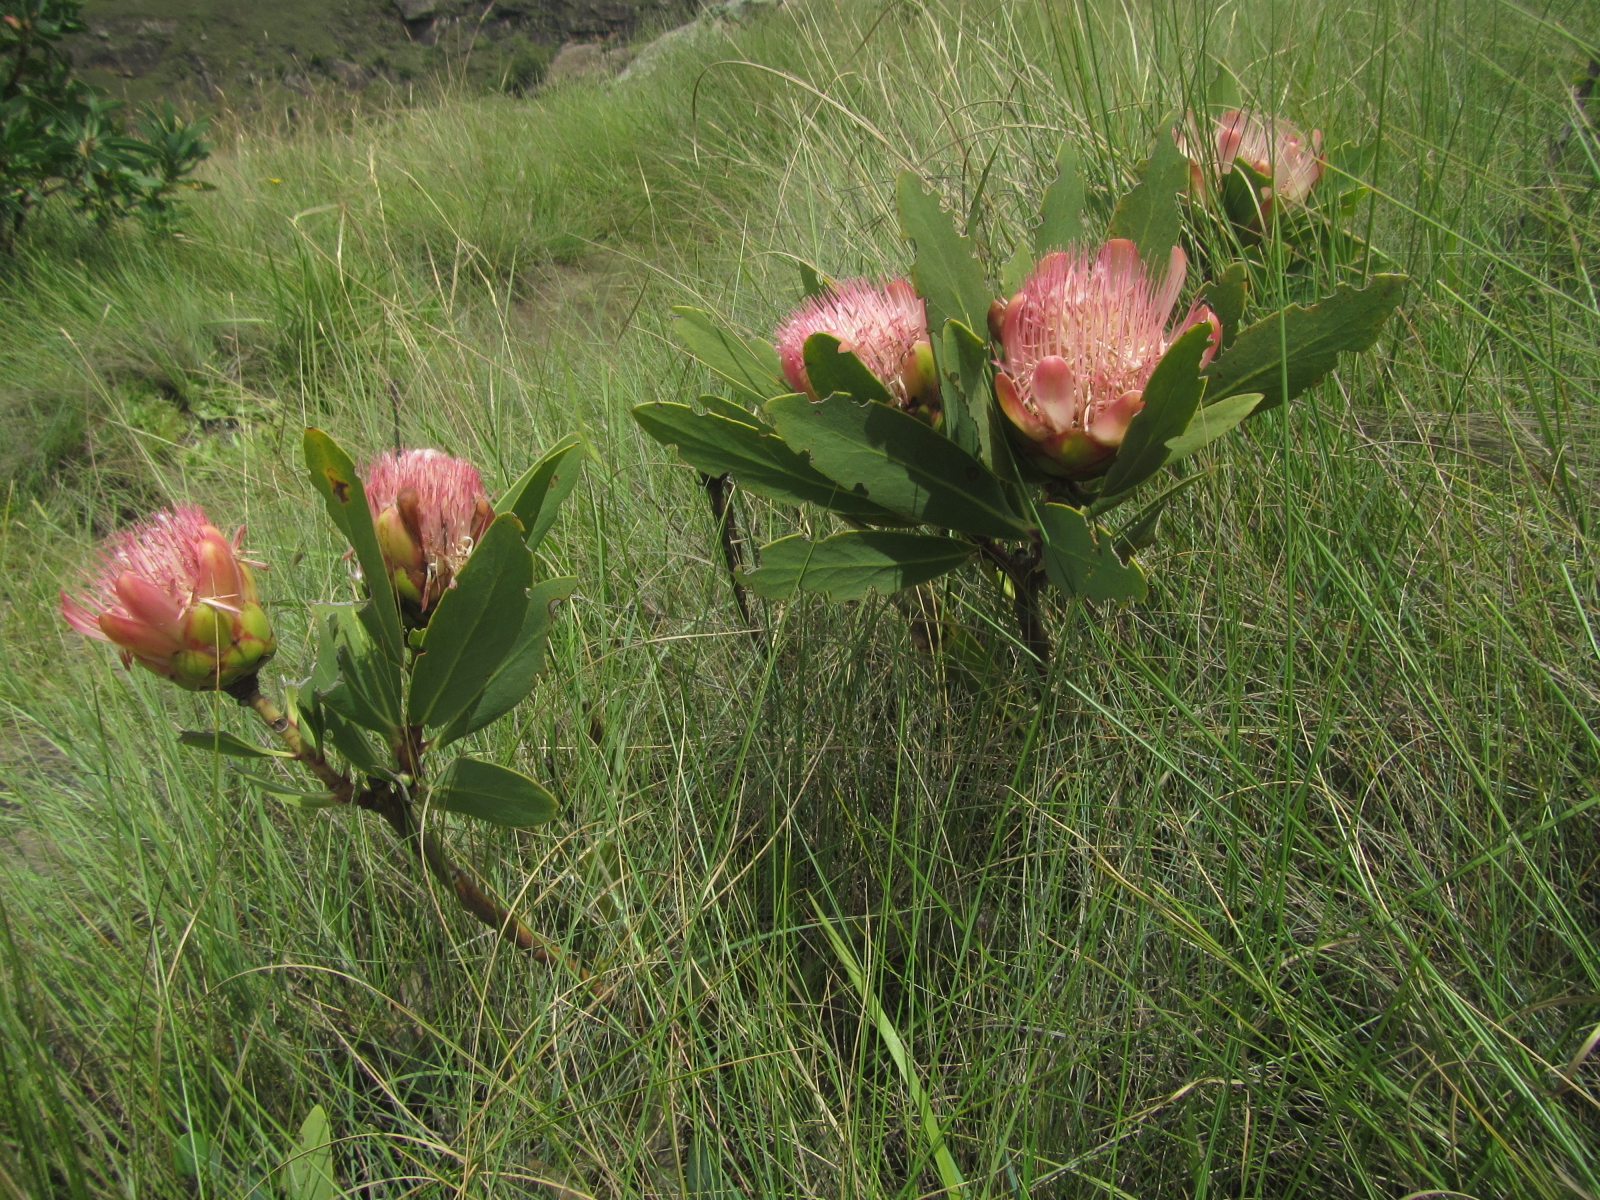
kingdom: Plantae
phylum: Tracheophyta
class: Magnoliopsida
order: Proteales
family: Proteaceae
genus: Protea
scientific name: Protea dracomontana
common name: Drakensberg dwarf sugarbush
